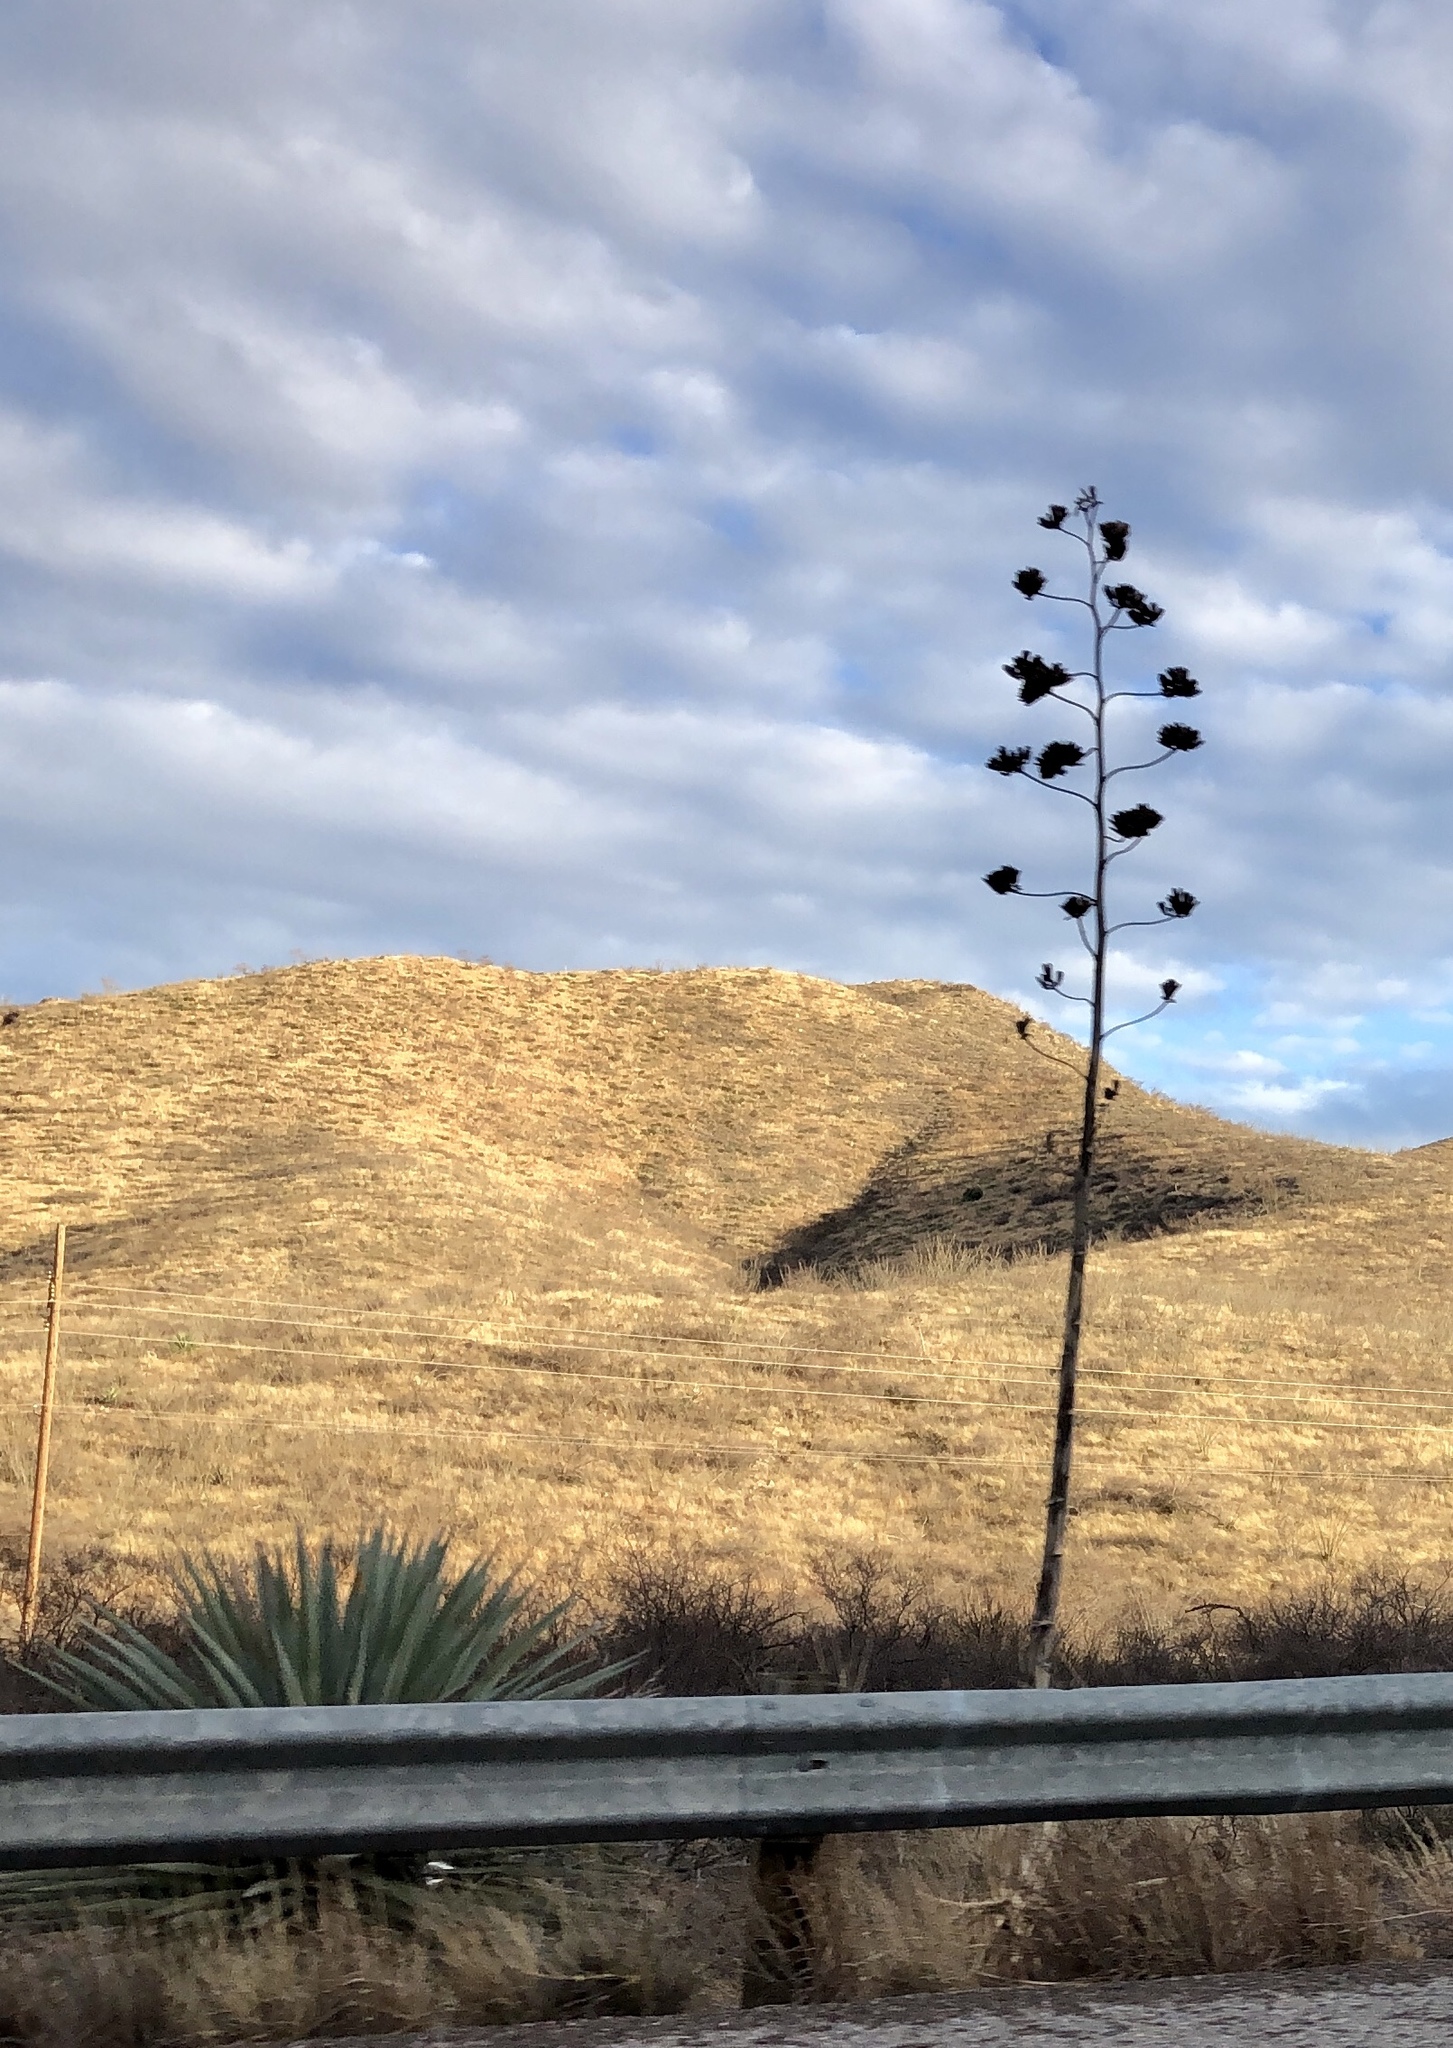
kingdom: Plantae
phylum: Tracheophyta
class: Liliopsida
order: Asparagales
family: Asparagaceae
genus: Agave
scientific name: Agave palmeri
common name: Palmer agave
